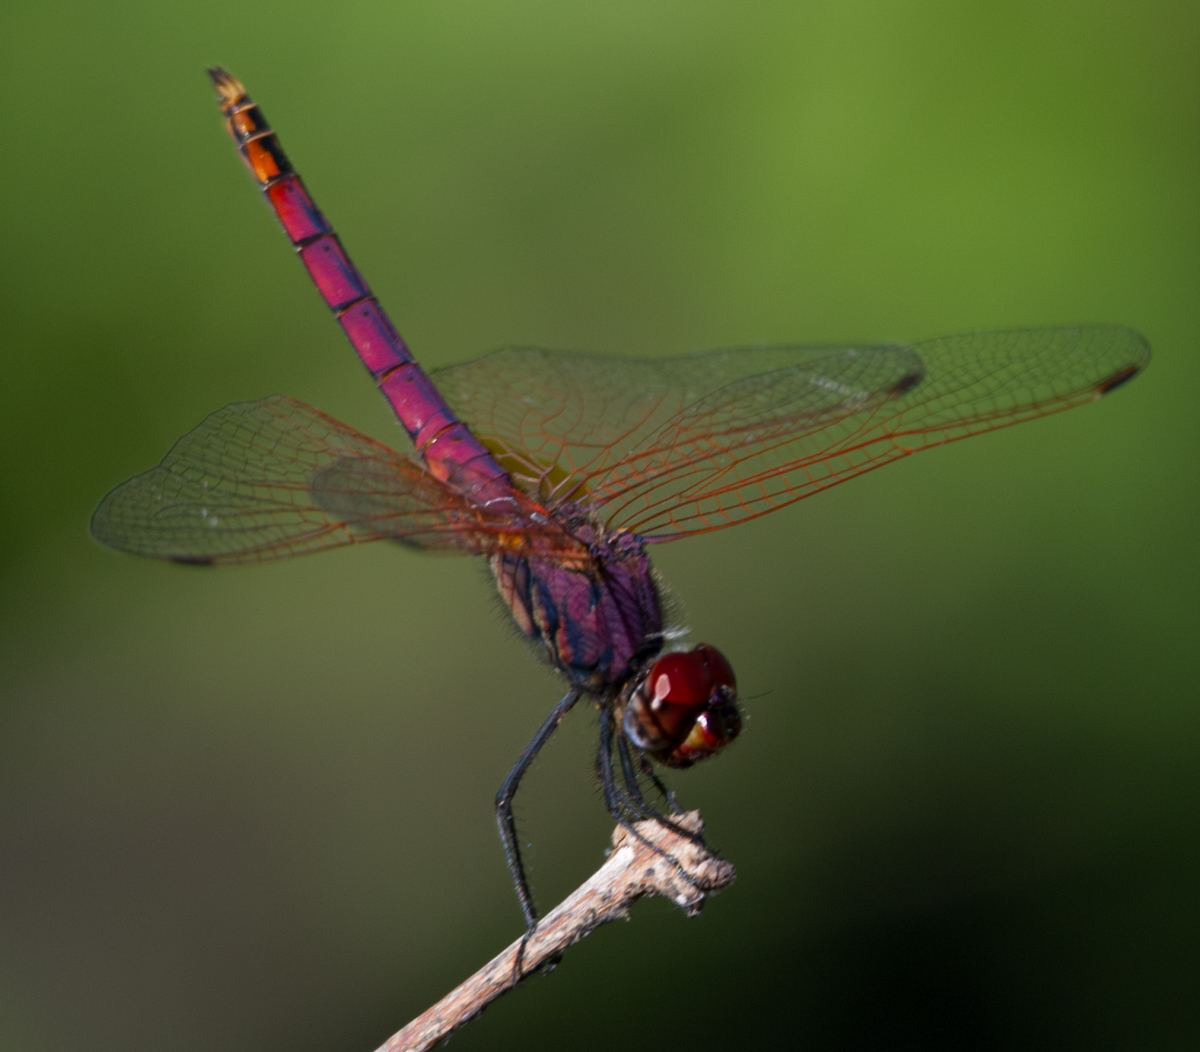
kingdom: Animalia
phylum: Arthropoda
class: Insecta
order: Odonata
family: Libellulidae
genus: Trithemis
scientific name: Trithemis annulata
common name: Violet dropwing
